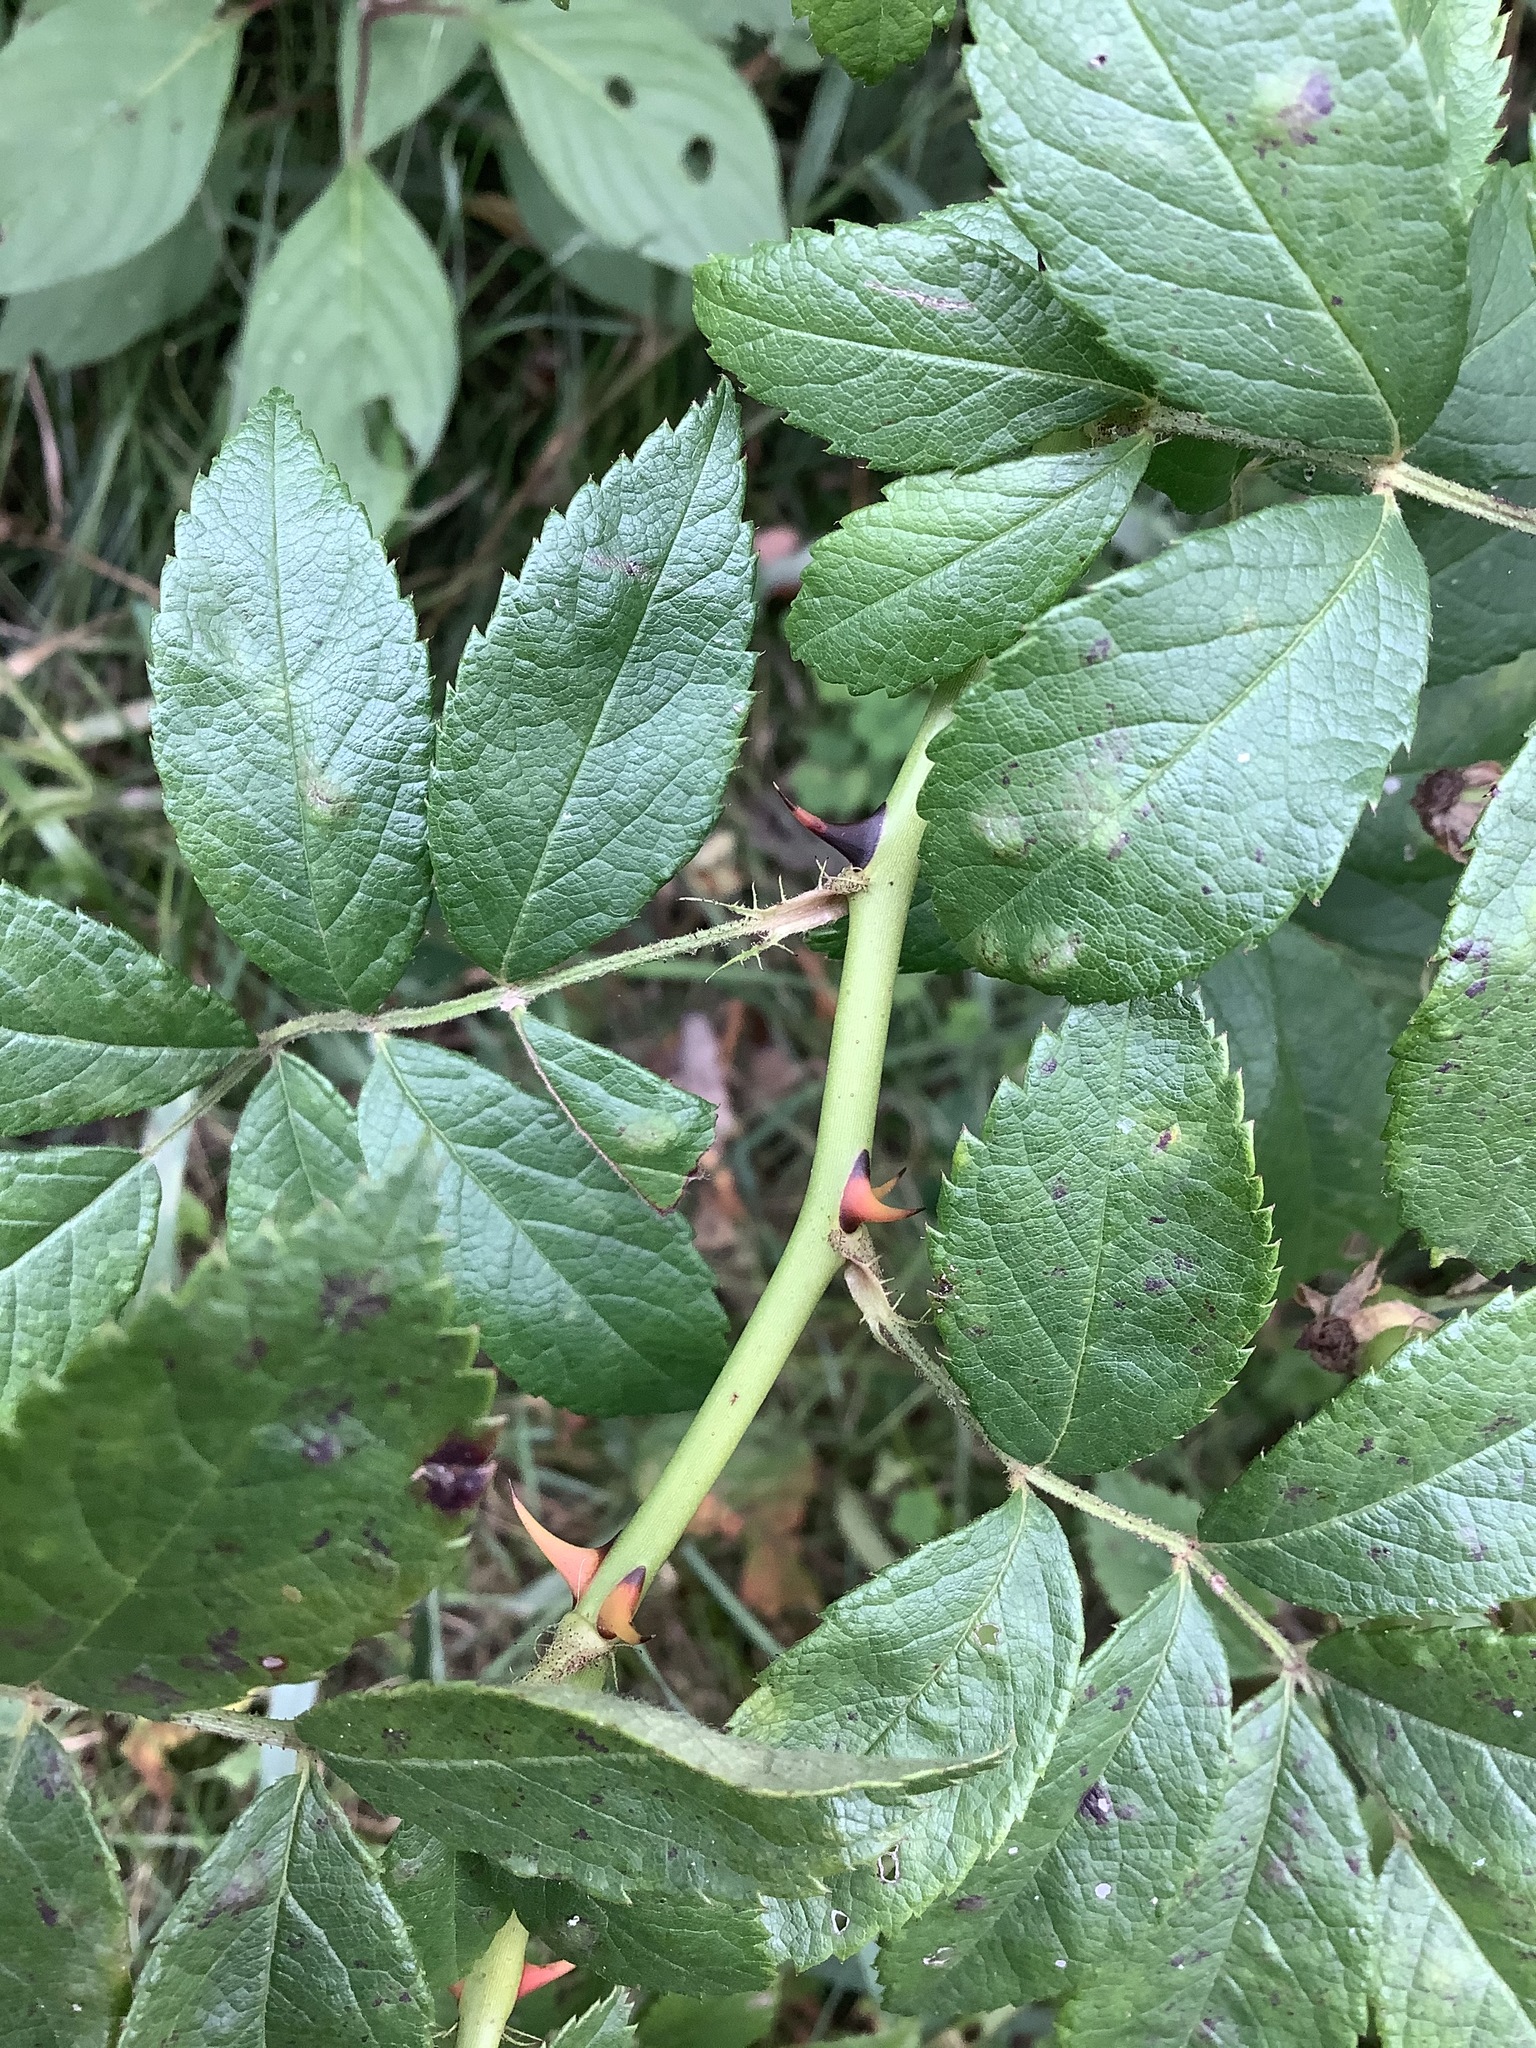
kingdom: Plantae
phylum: Tracheophyta
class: Magnoliopsida
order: Rosales
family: Rosaceae
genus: Rosa
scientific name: Rosa multiflora
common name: Multiflora rose
